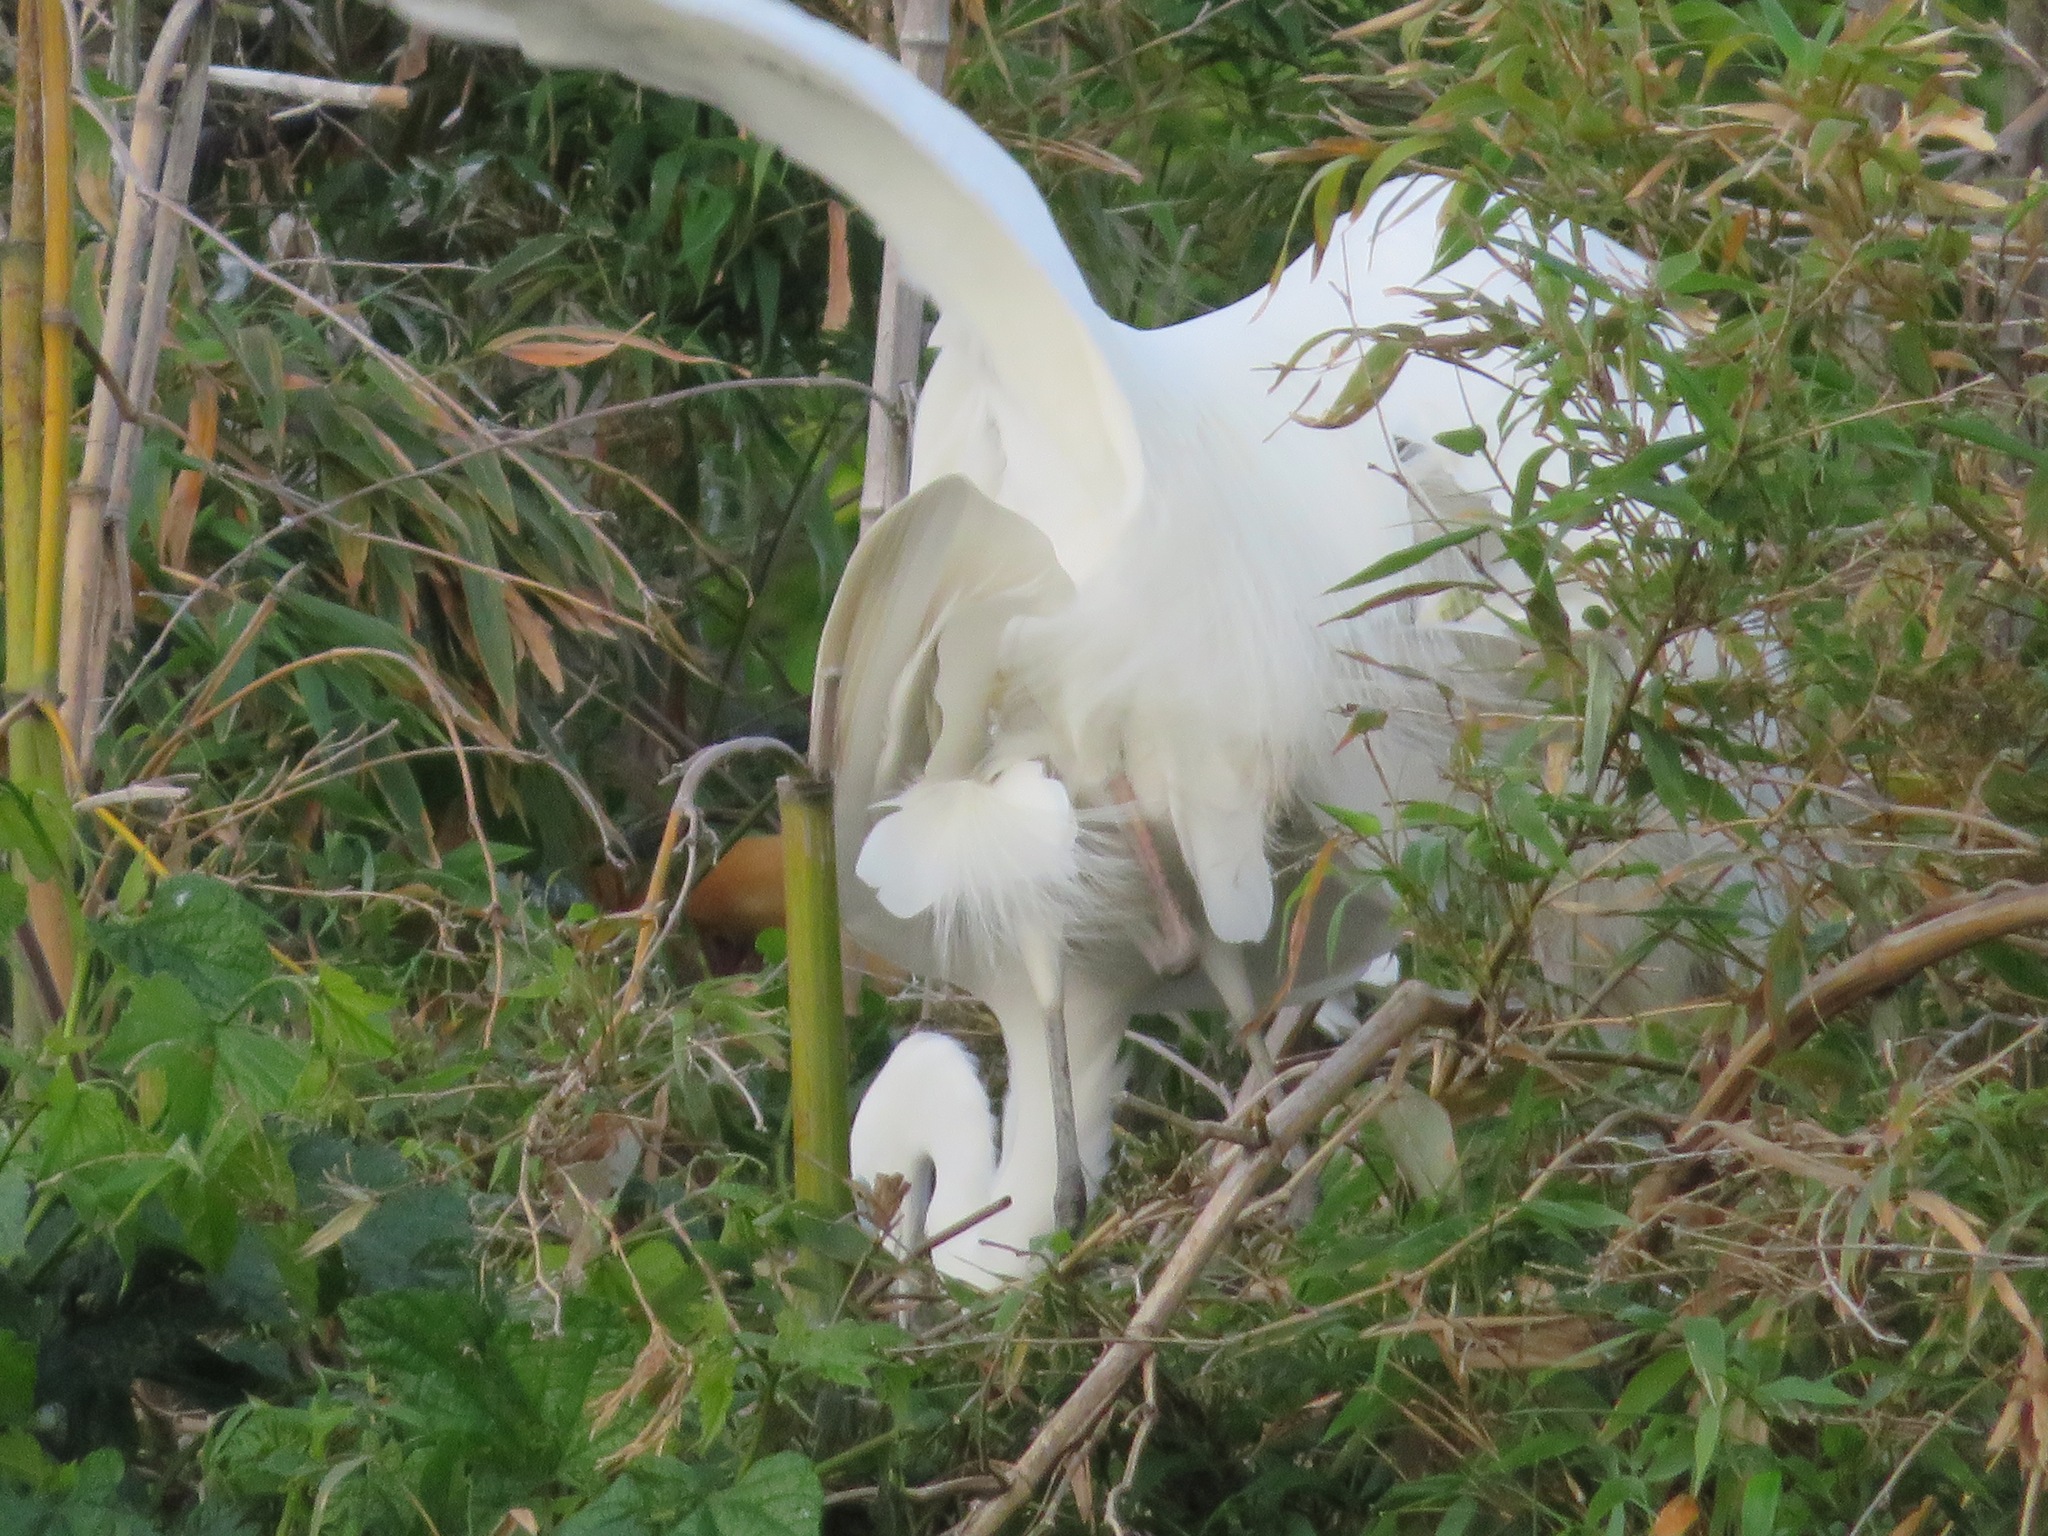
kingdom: Animalia
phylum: Chordata
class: Aves
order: Pelecaniformes
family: Ardeidae
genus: Ardea
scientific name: Ardea alba
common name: Great egret
